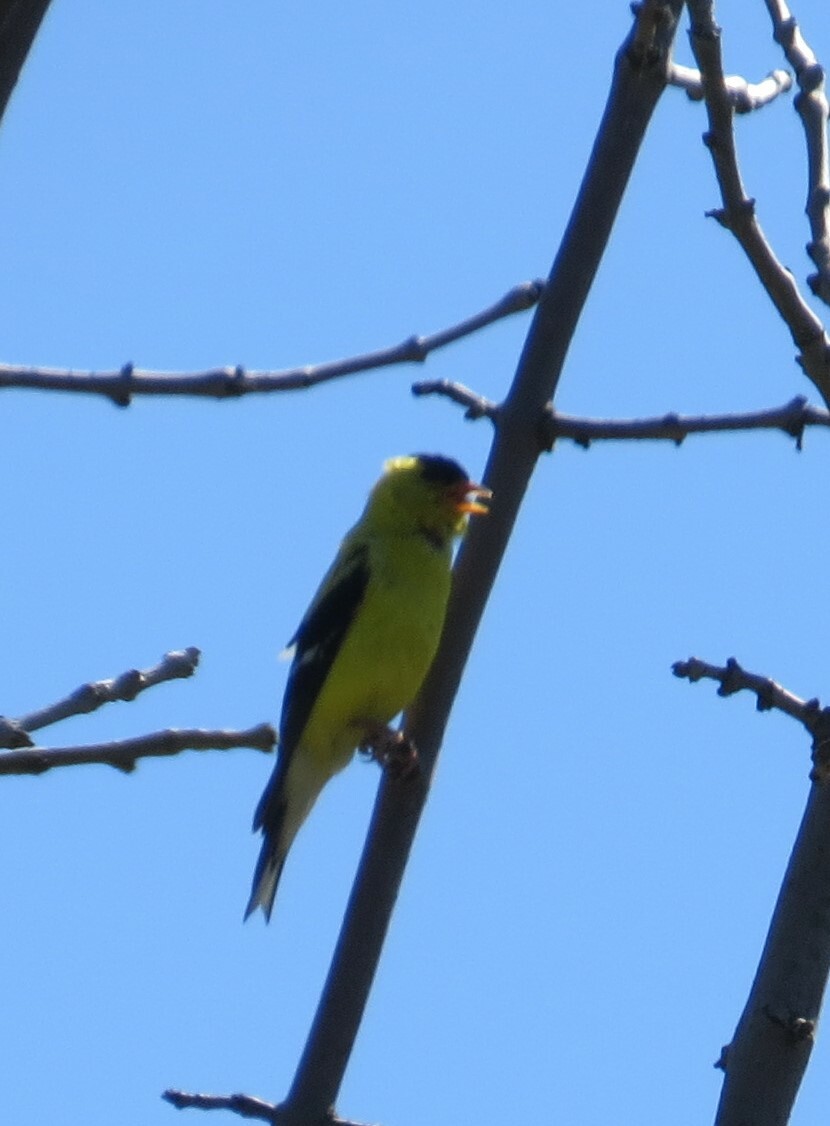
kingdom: Animalia
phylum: Chordata
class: Aves
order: Passeriformes
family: Fringillidae
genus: Spinus
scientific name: Spinus tristis
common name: American goldfinch
